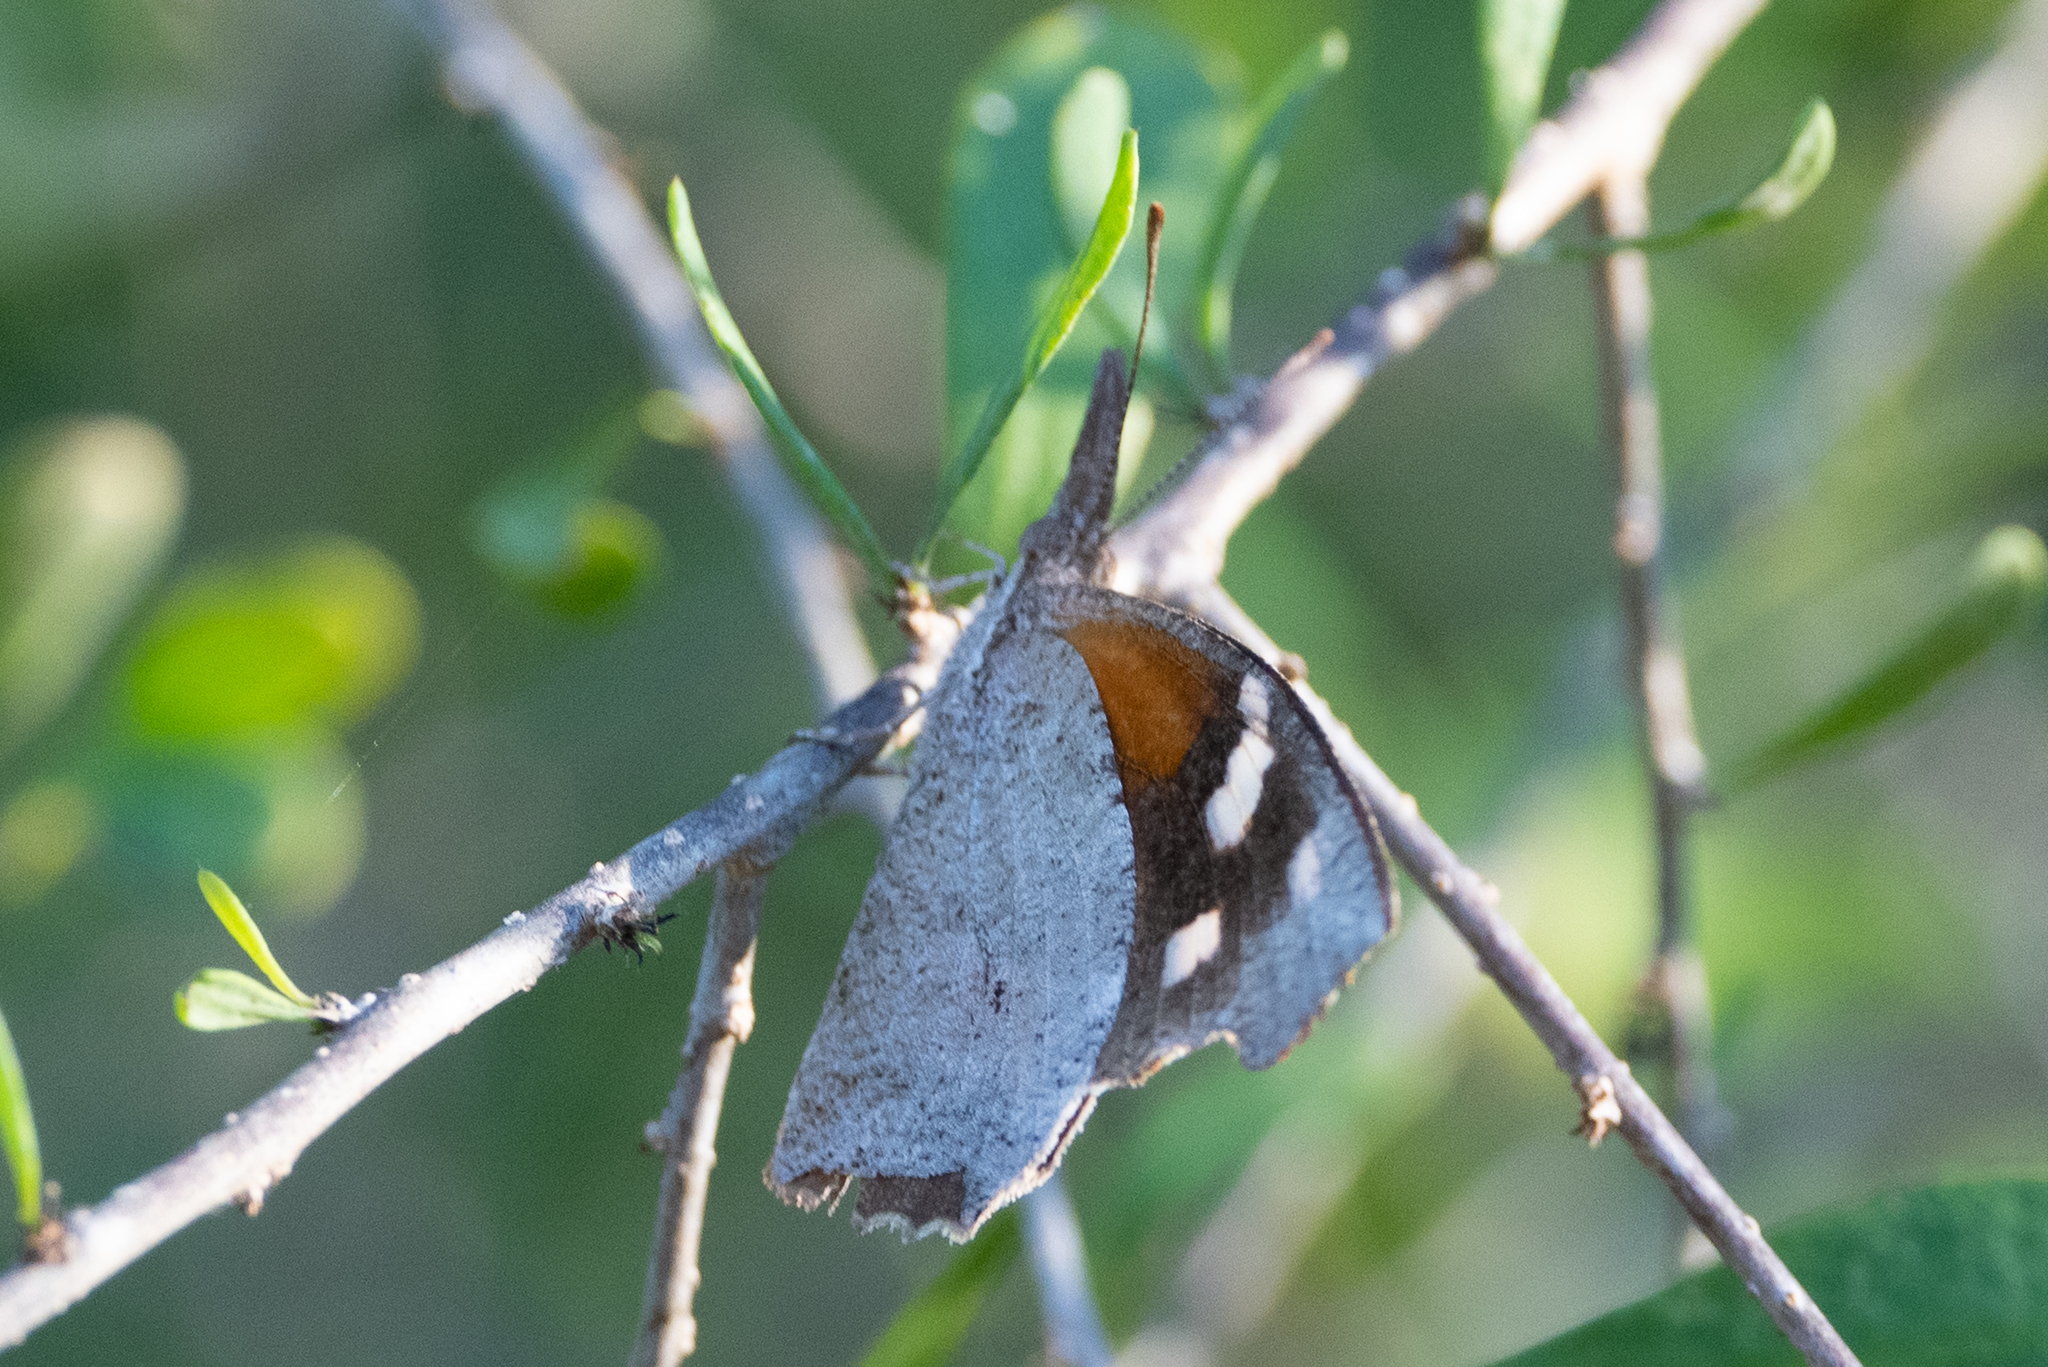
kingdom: Animalia
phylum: Arthropoda
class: Insecta
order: Lepidoptera
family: Nymphalidae
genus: Libytheana
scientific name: Libytheana carinenta
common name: American snout
